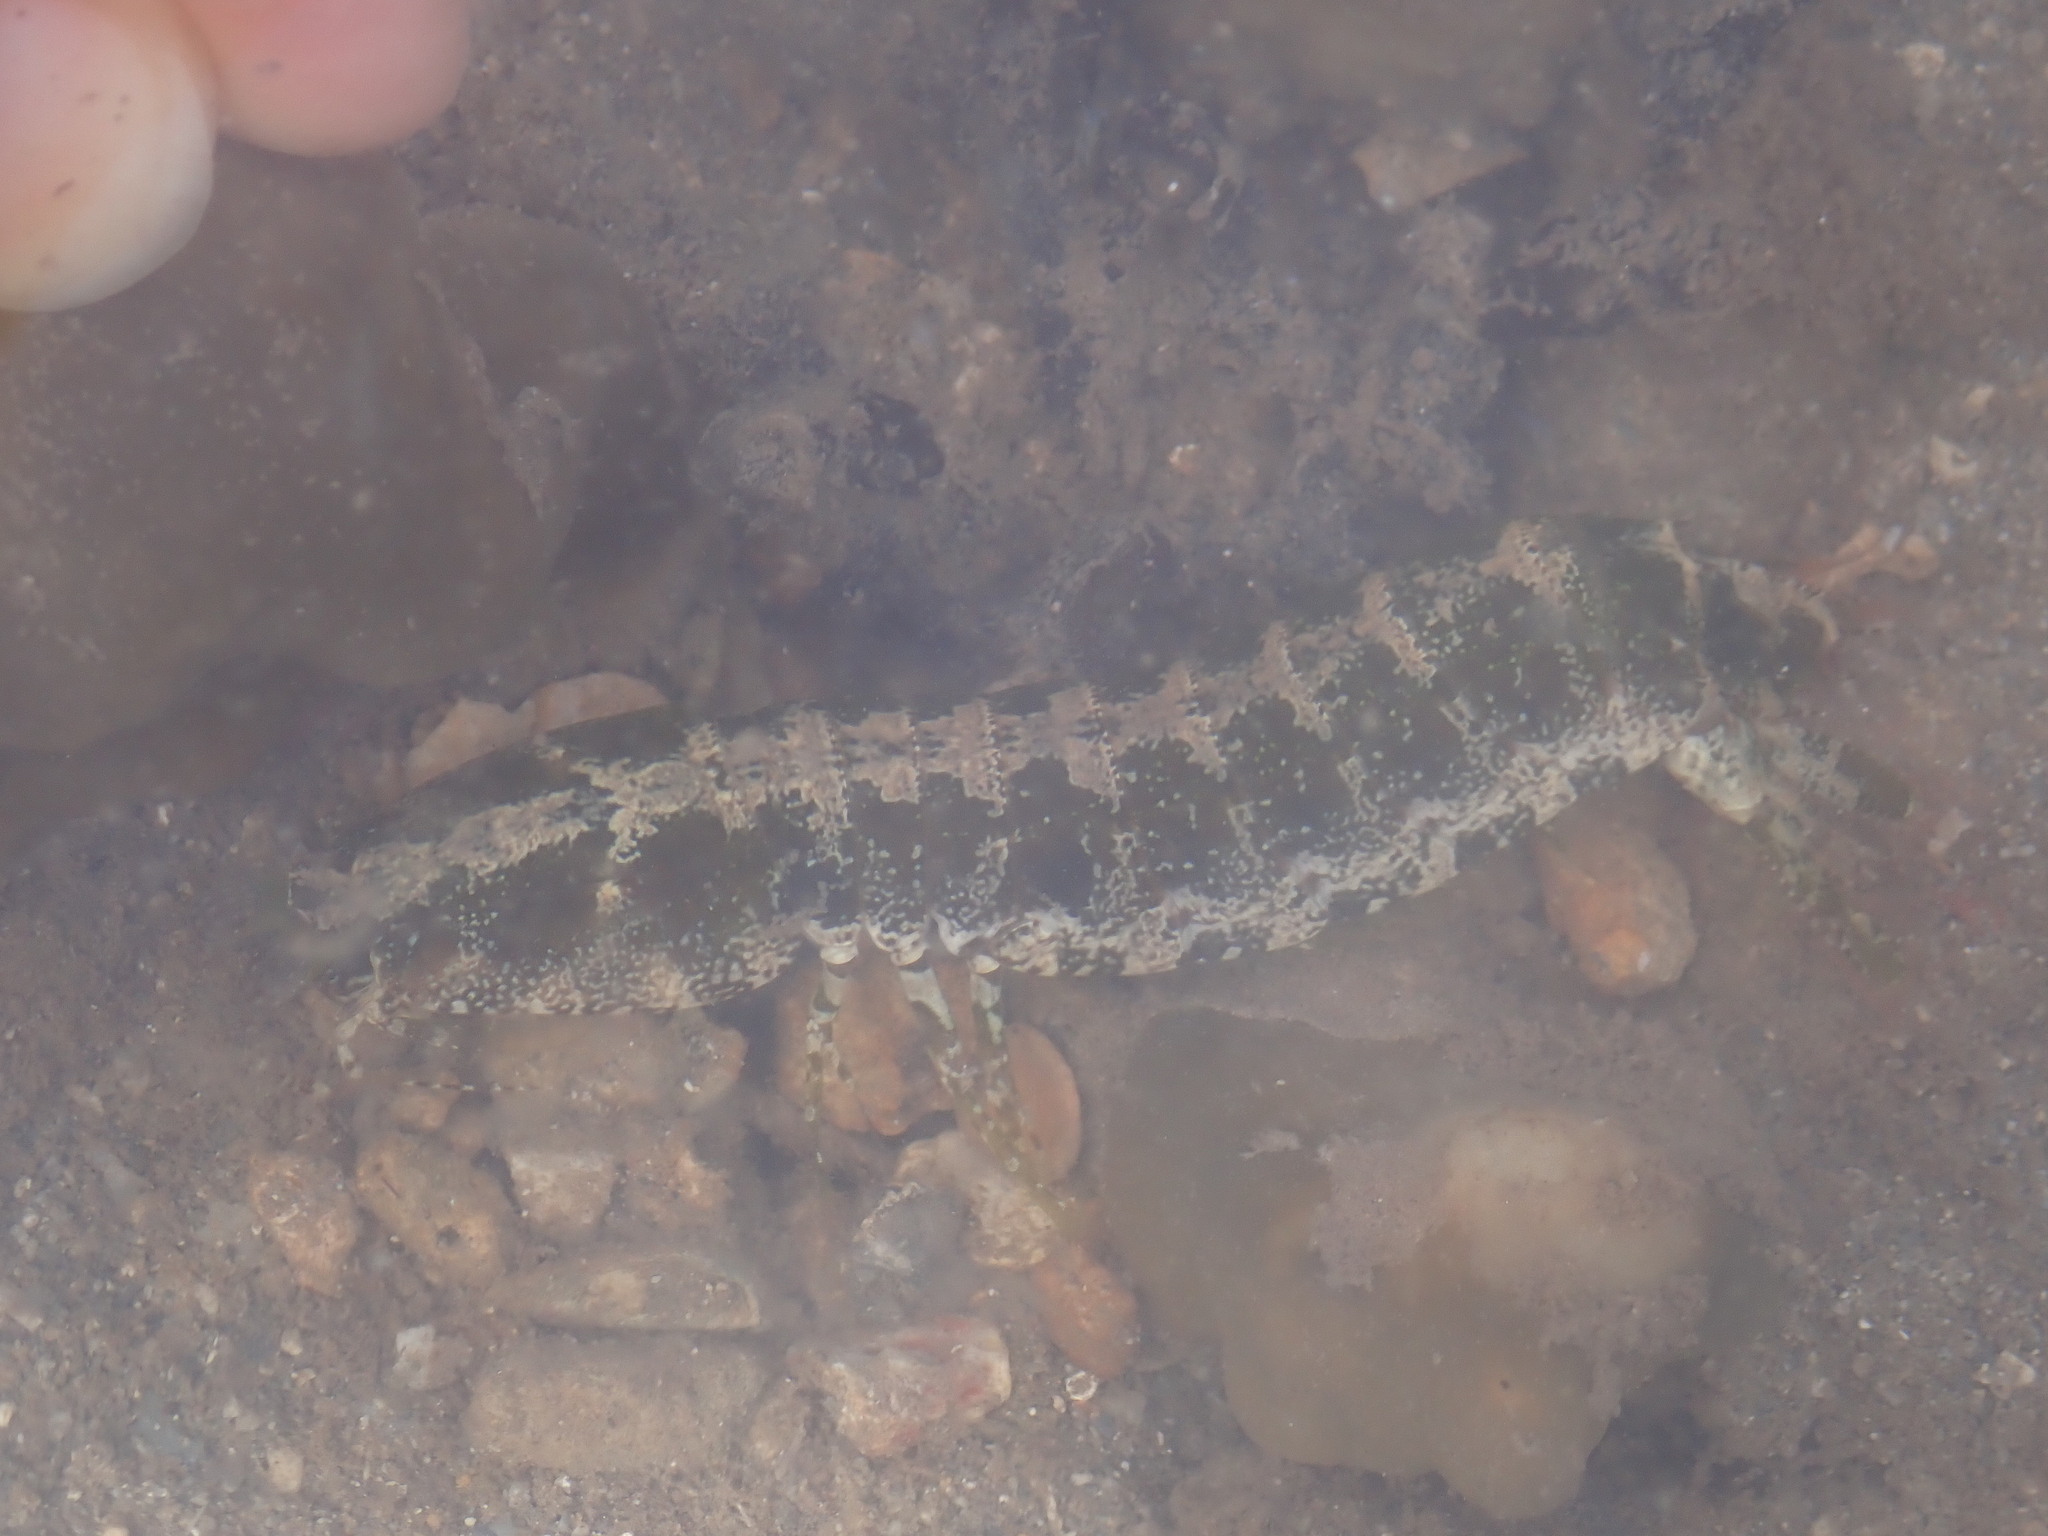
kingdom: Animalia
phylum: Arthropoda
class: Malacostraca
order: Stomatopoda
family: Pseudosquillidae
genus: Pseudosquilla
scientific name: Pseudosquilla ciliata
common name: Ciliated false squilla
